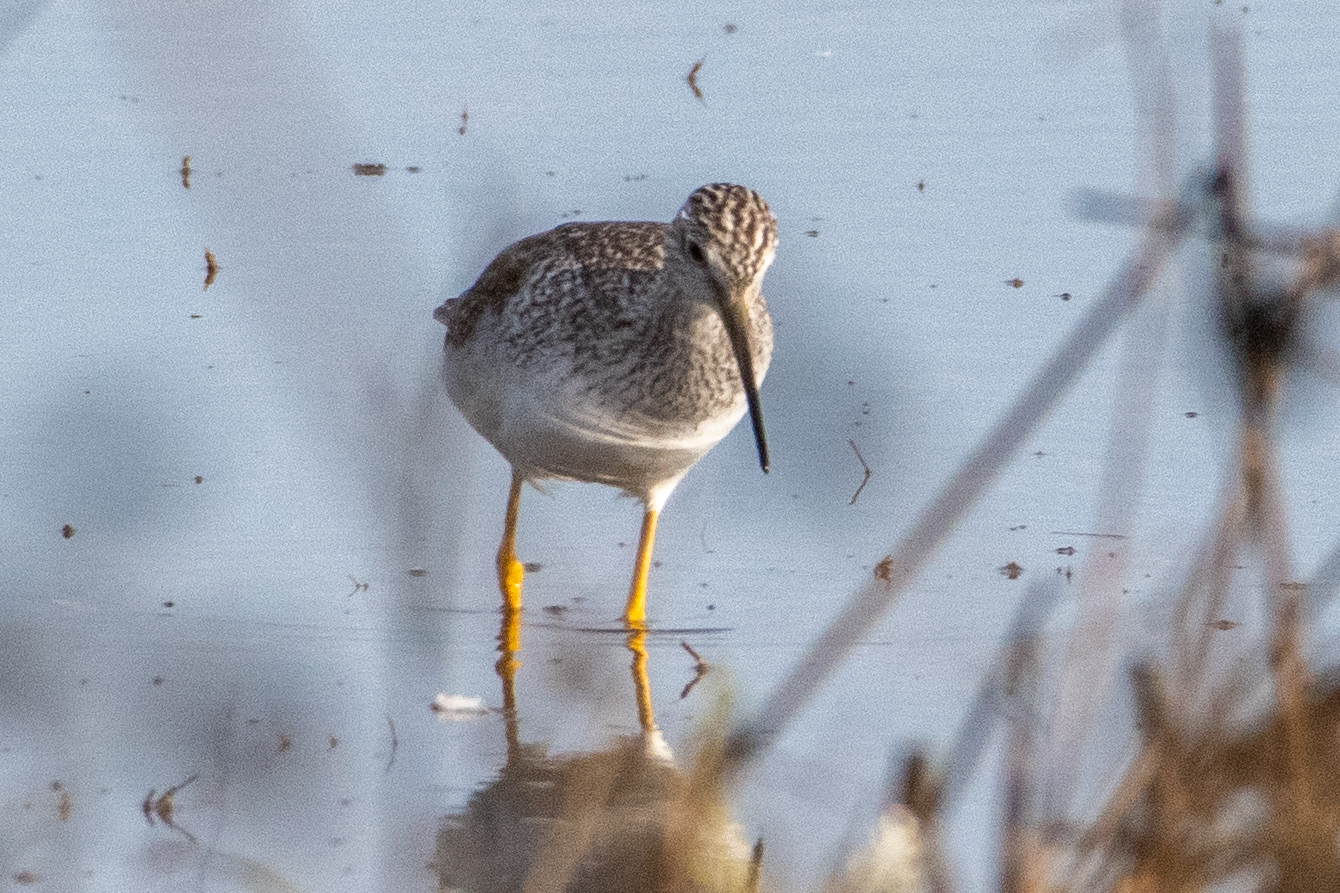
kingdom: Animalia
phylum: Chordata
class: Aves
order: Charadriiformes
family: Scolopacidae
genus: Tringa
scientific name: Tringa melanoleuca
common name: Greater yellowlegs
